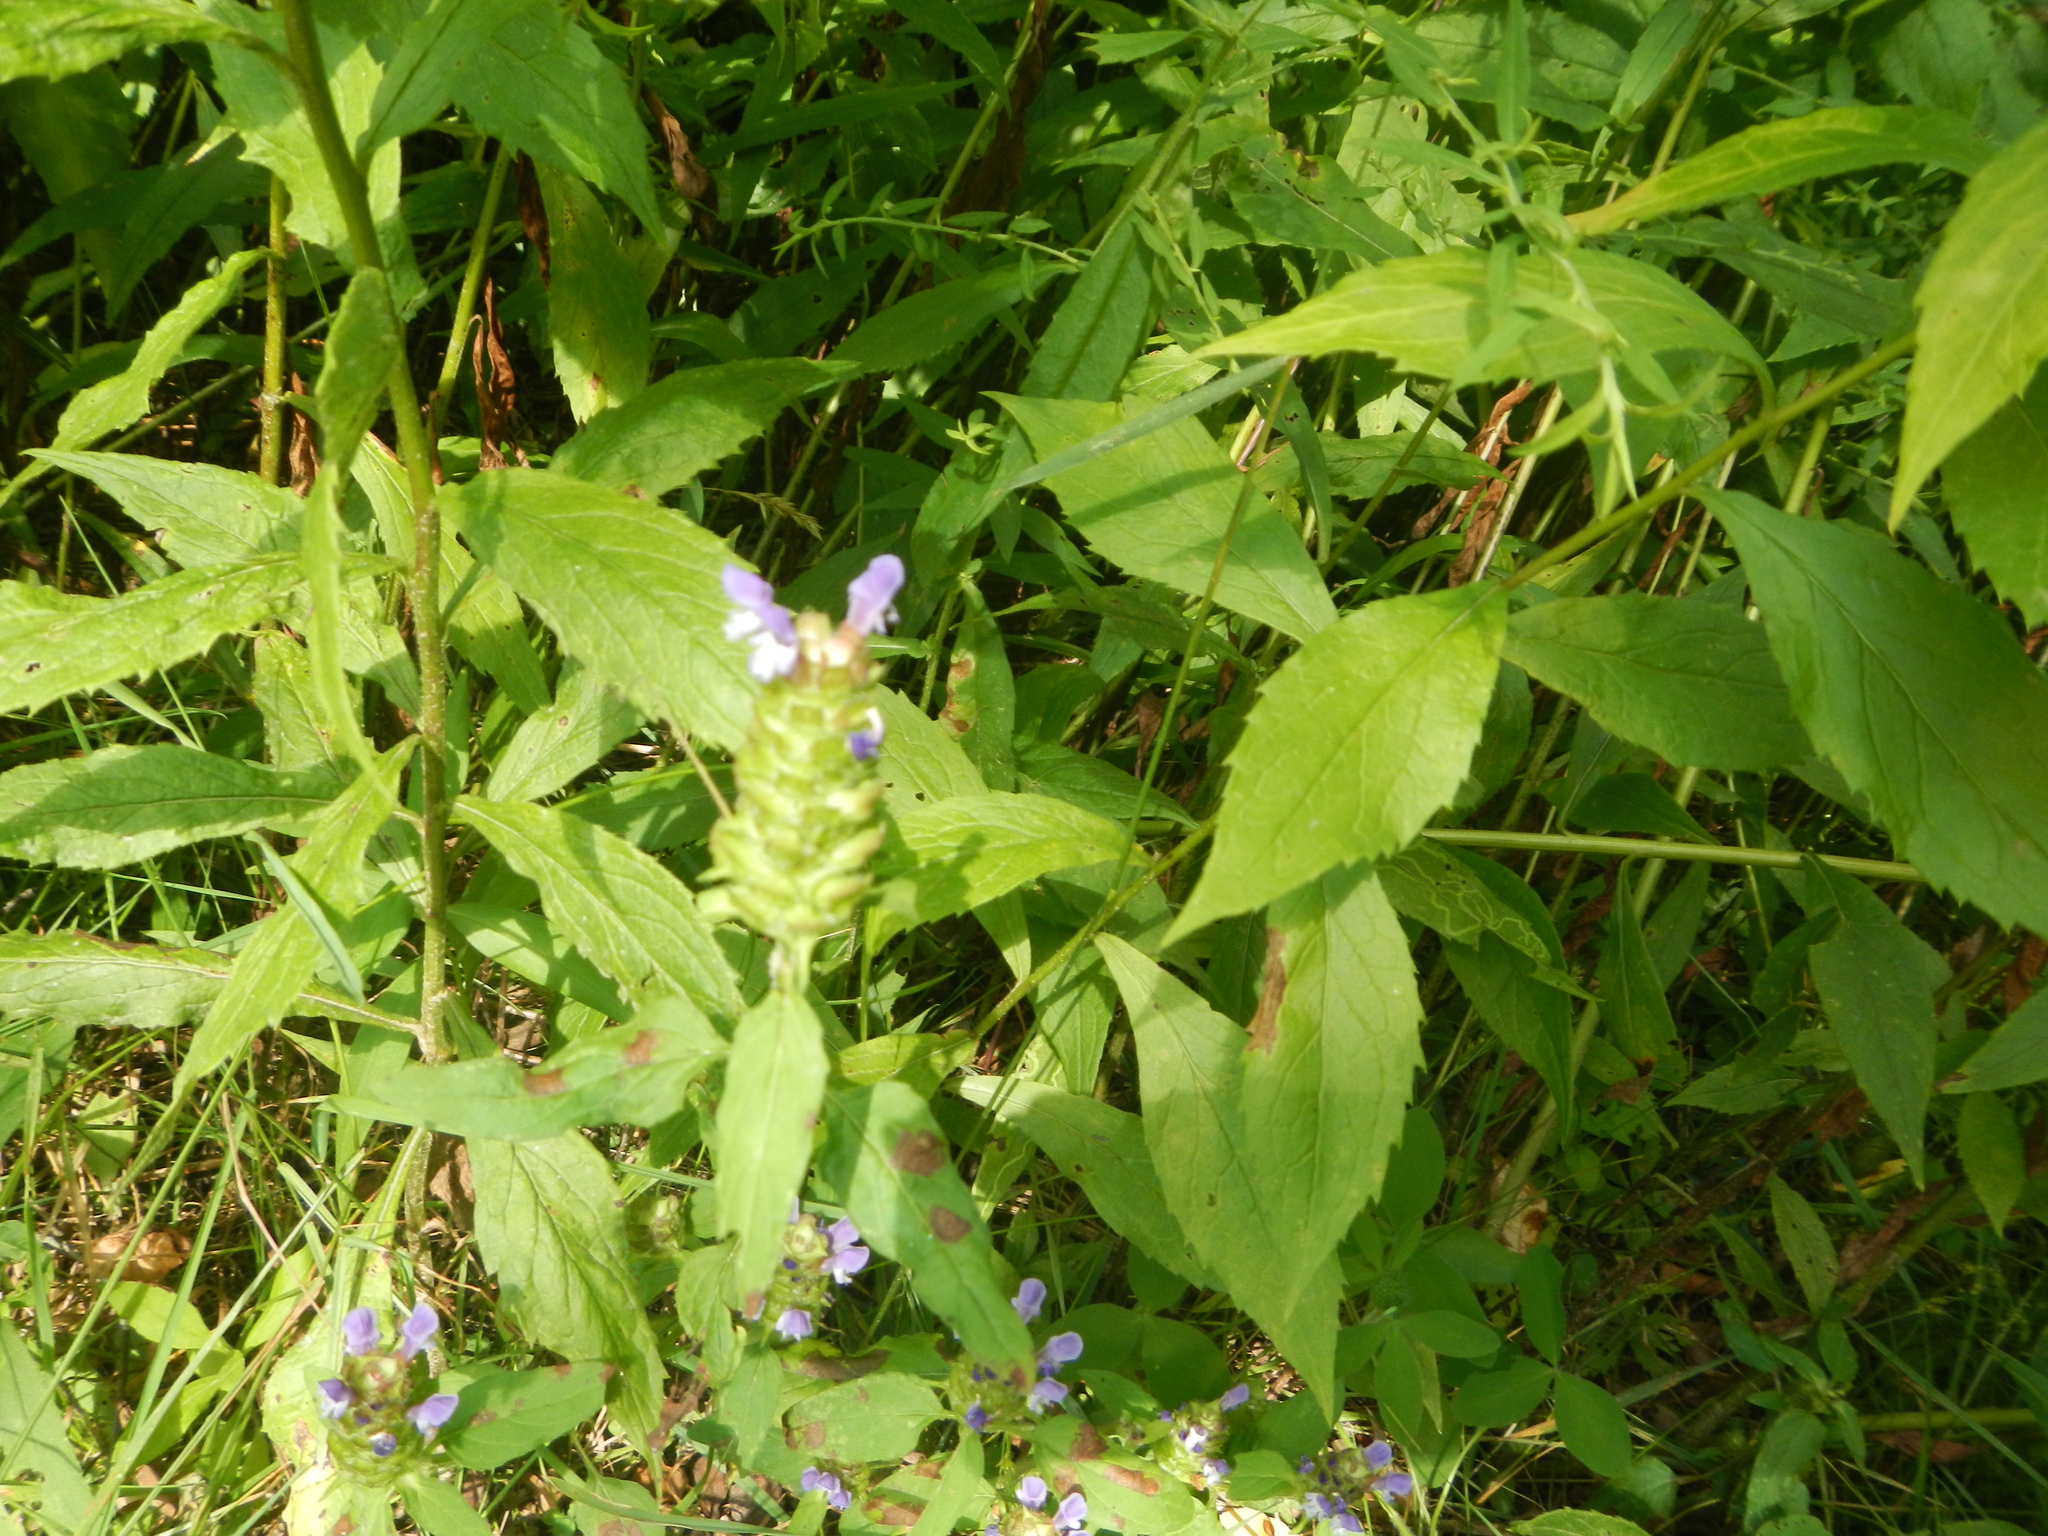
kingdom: Plantae
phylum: Tracheophyta
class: Magnoliopsida
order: Lamiales
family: Lamiaceae
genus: Prunella
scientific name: Prunella vulgaris
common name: Heal-all
